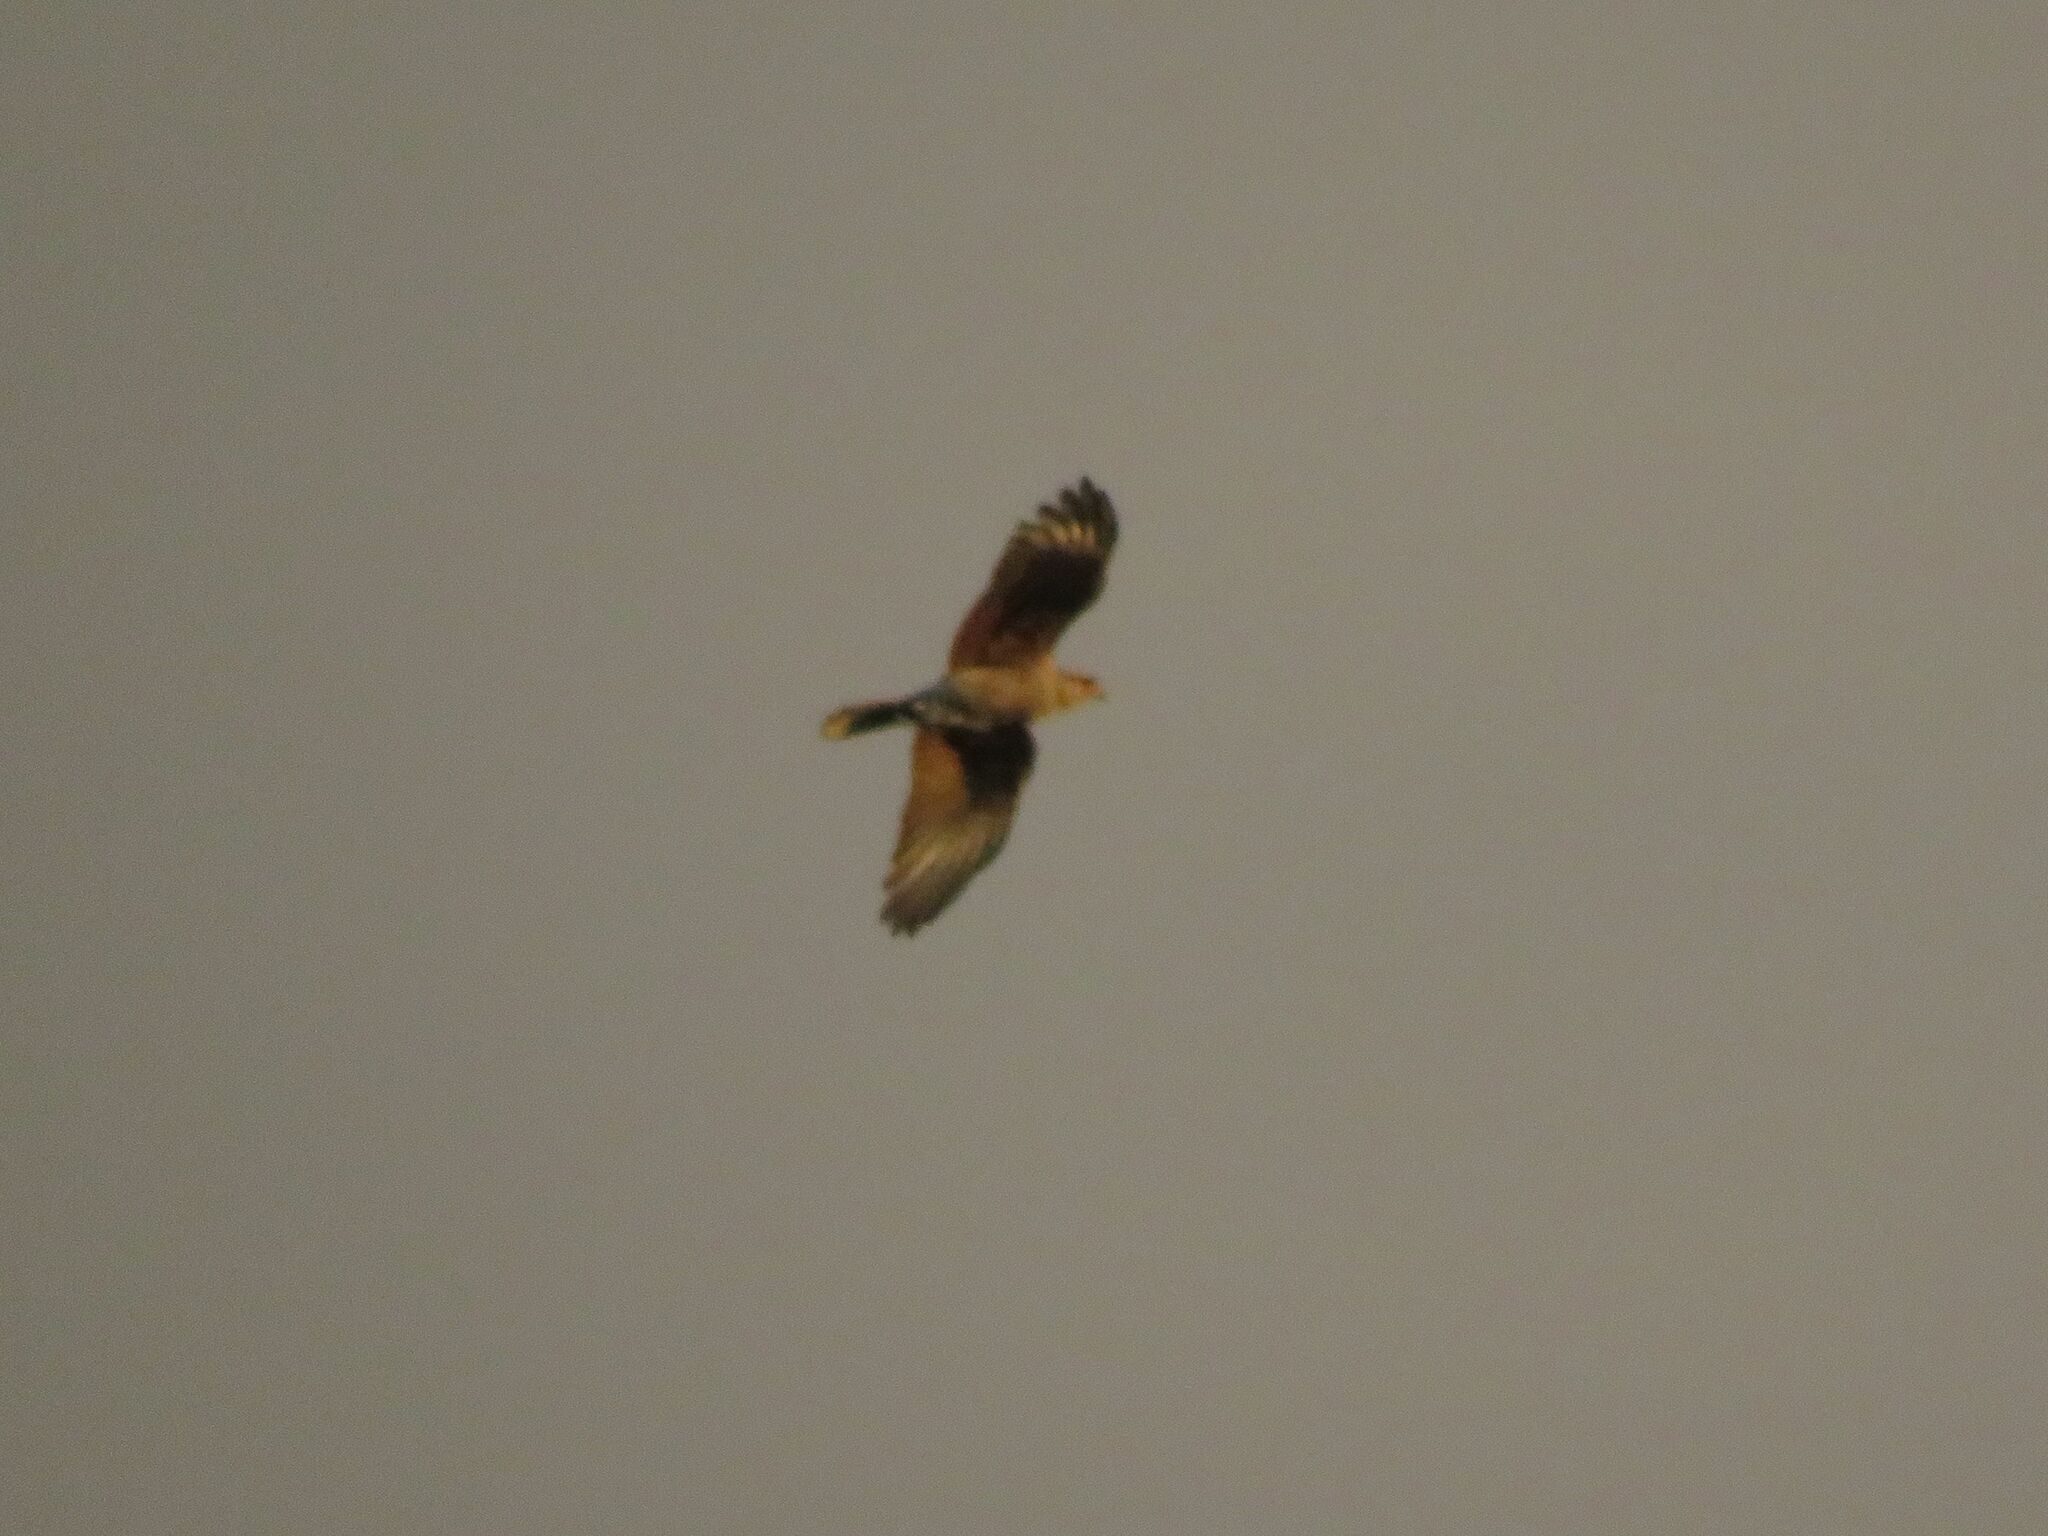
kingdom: Animalia
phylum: Chordata
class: Aves
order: Falconiformes
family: Falconidae
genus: Daptrius
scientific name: Daptrius
